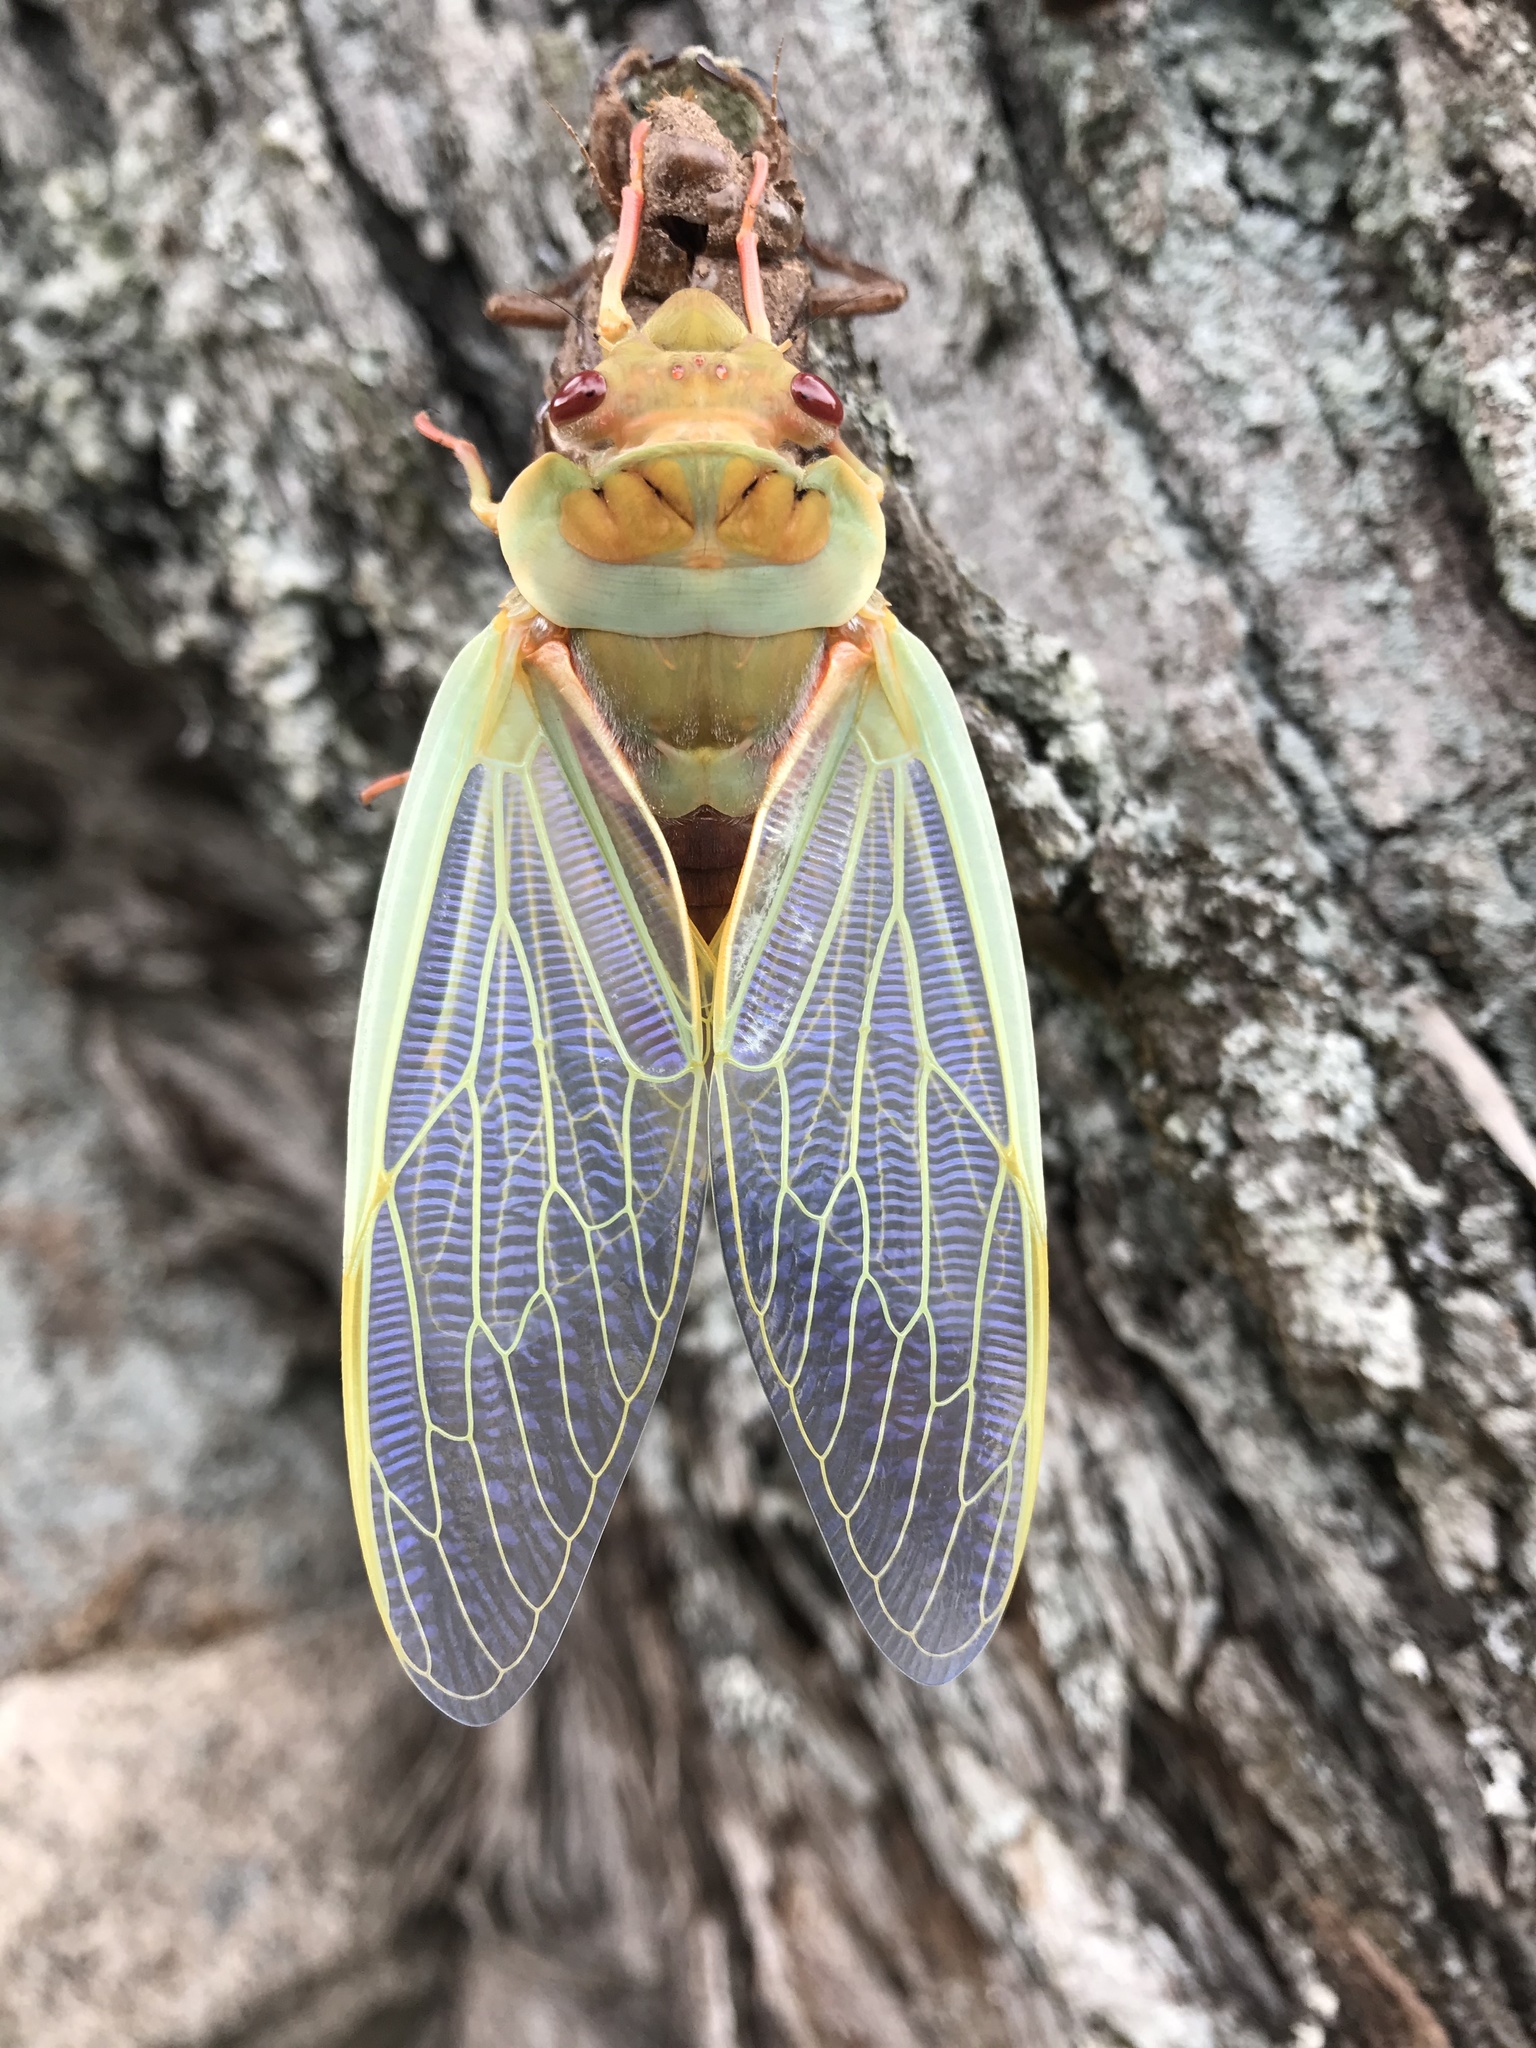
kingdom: Animalia
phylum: Arthropoda
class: Insecta
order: Hemiptera
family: Cicadidae
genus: Cyclochila
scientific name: Cyclochila australasiae
